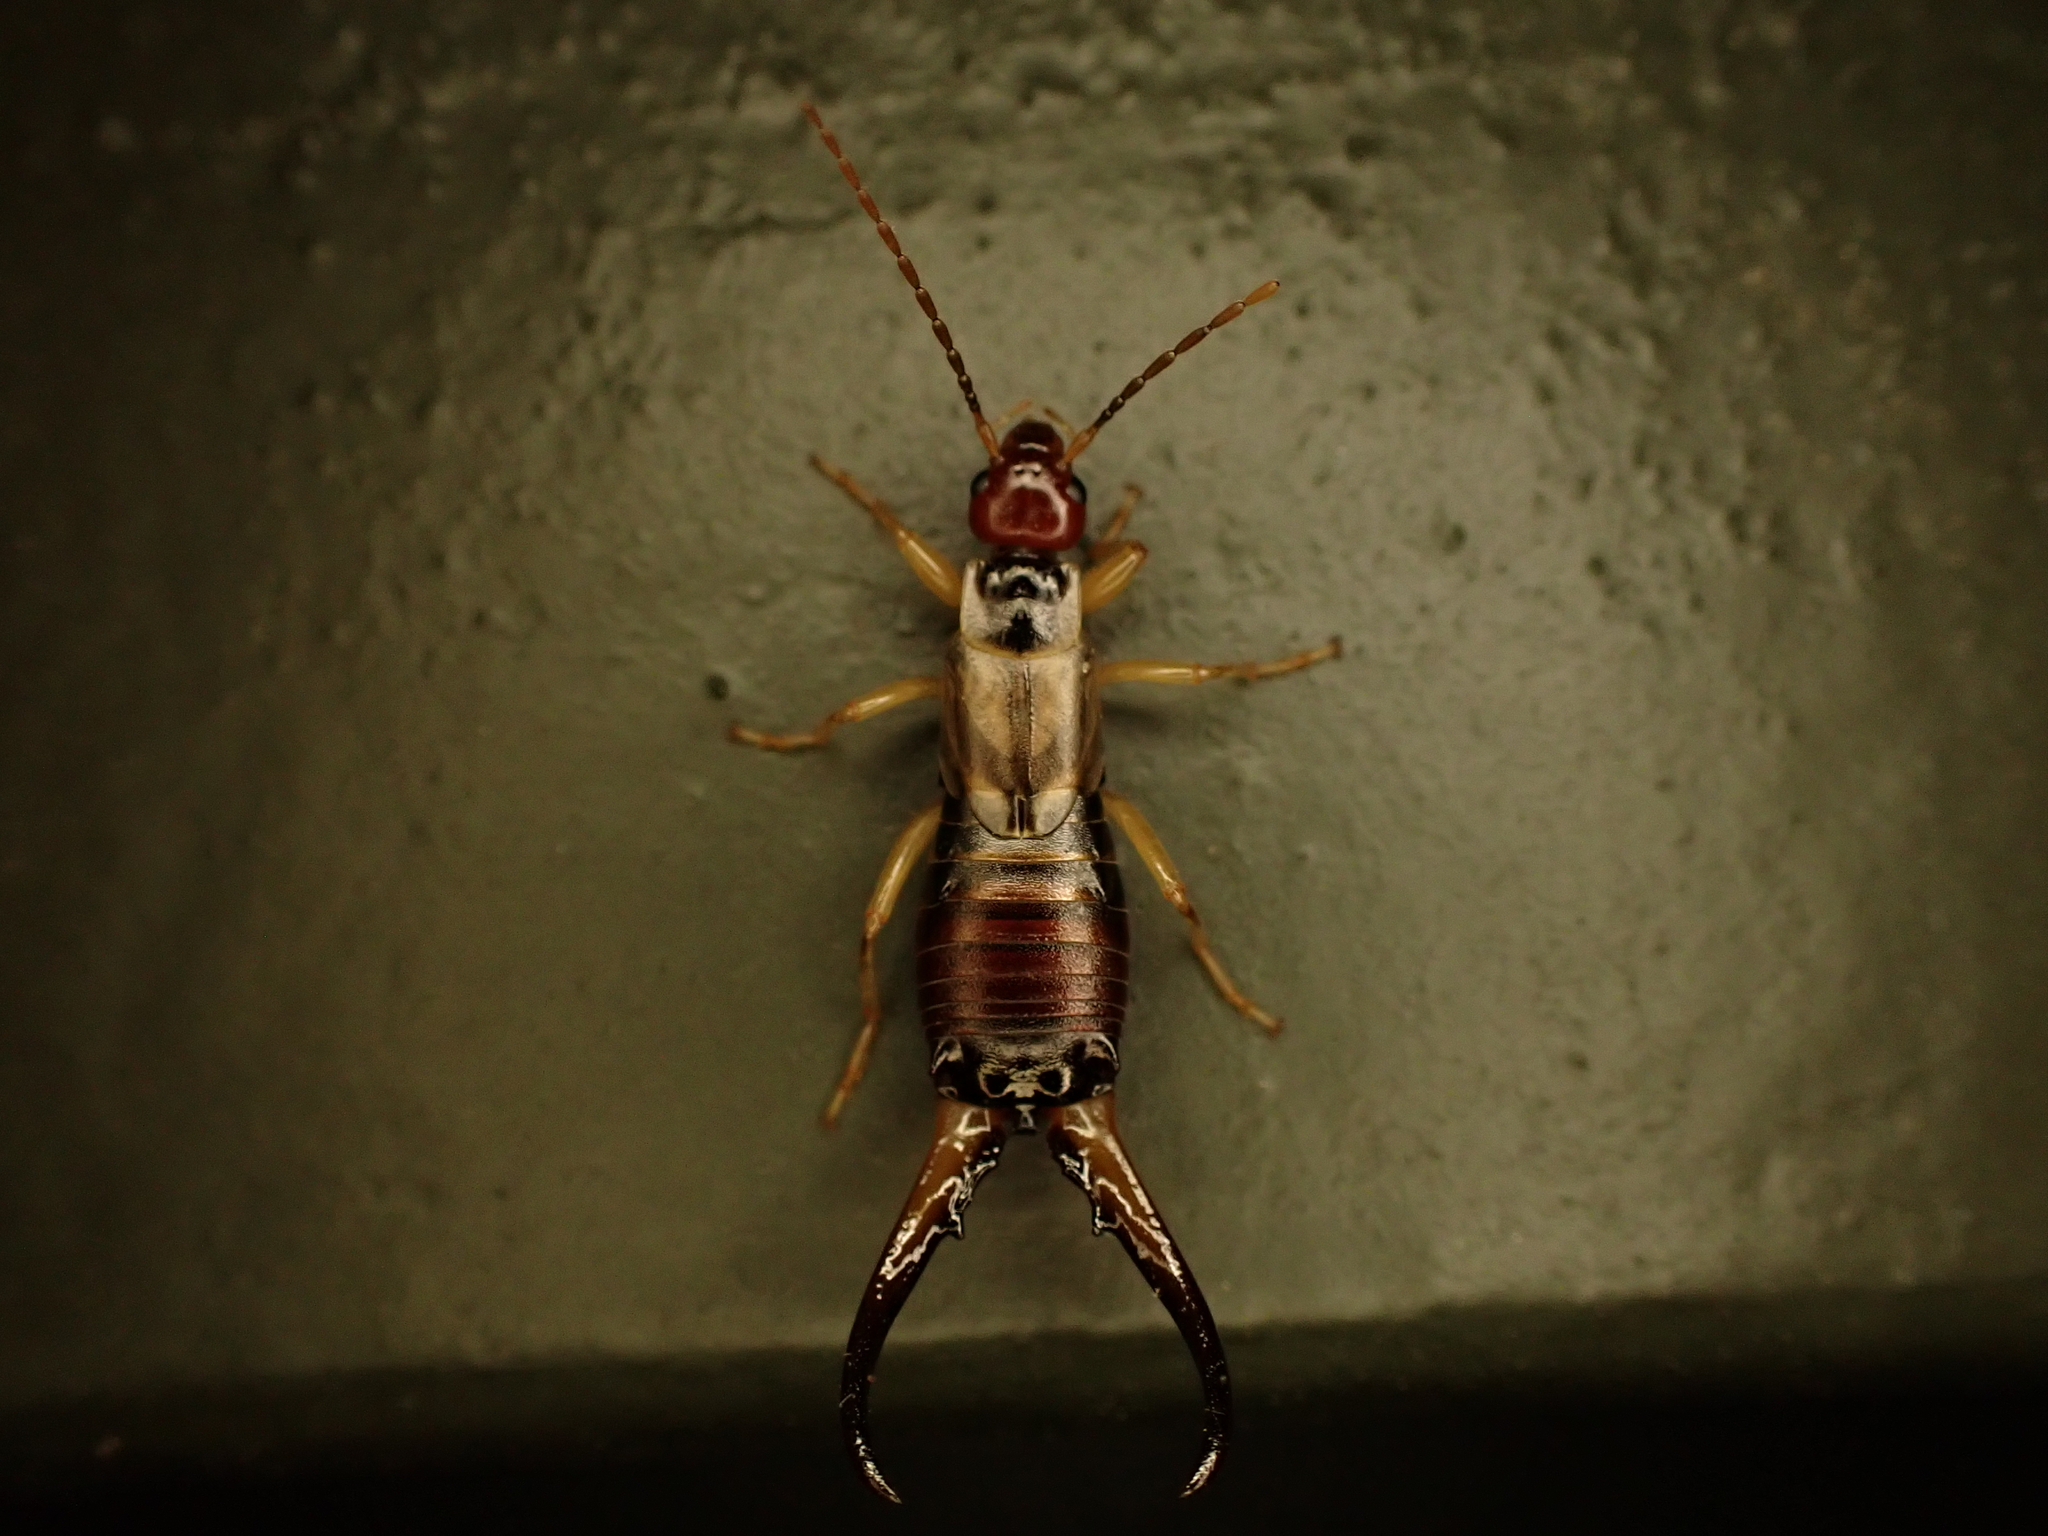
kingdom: Animalia
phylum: Arthropoda
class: Insecta
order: Dermaptera
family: Forficulidae
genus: Forficula
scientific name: Forficula
